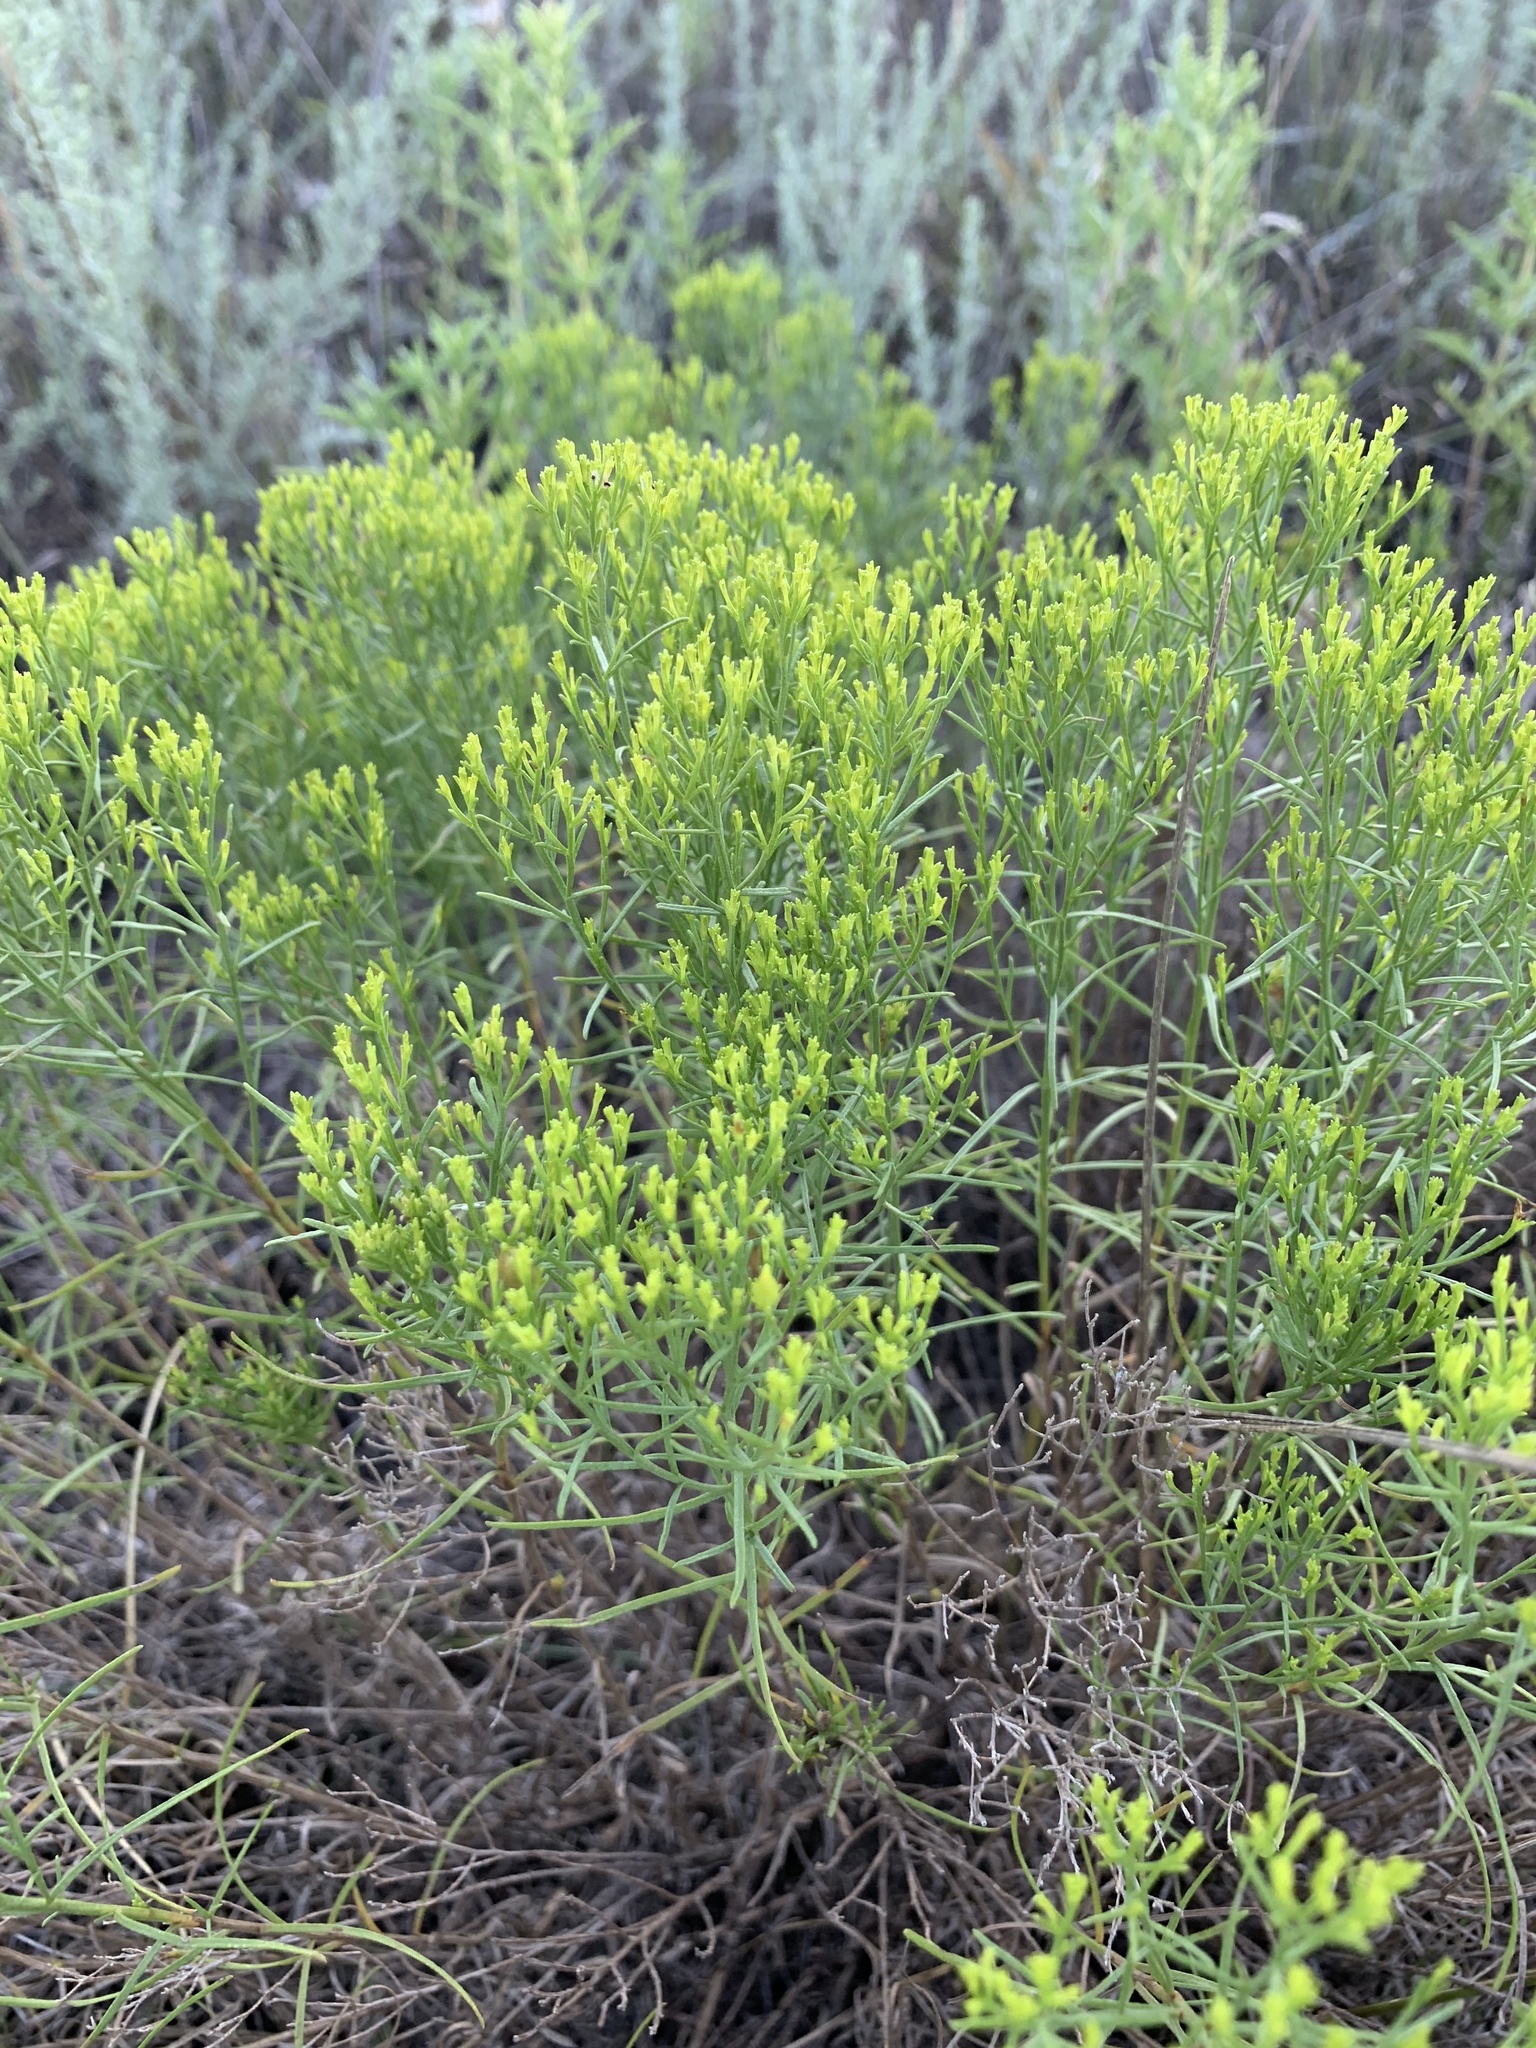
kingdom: Plantae
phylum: Tracheophyta
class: Magnoliopsida
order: Asterales
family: Asteraceae
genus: Gutierrezia
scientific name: Gutierrezia sarothrae
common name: Broom snakeweed
